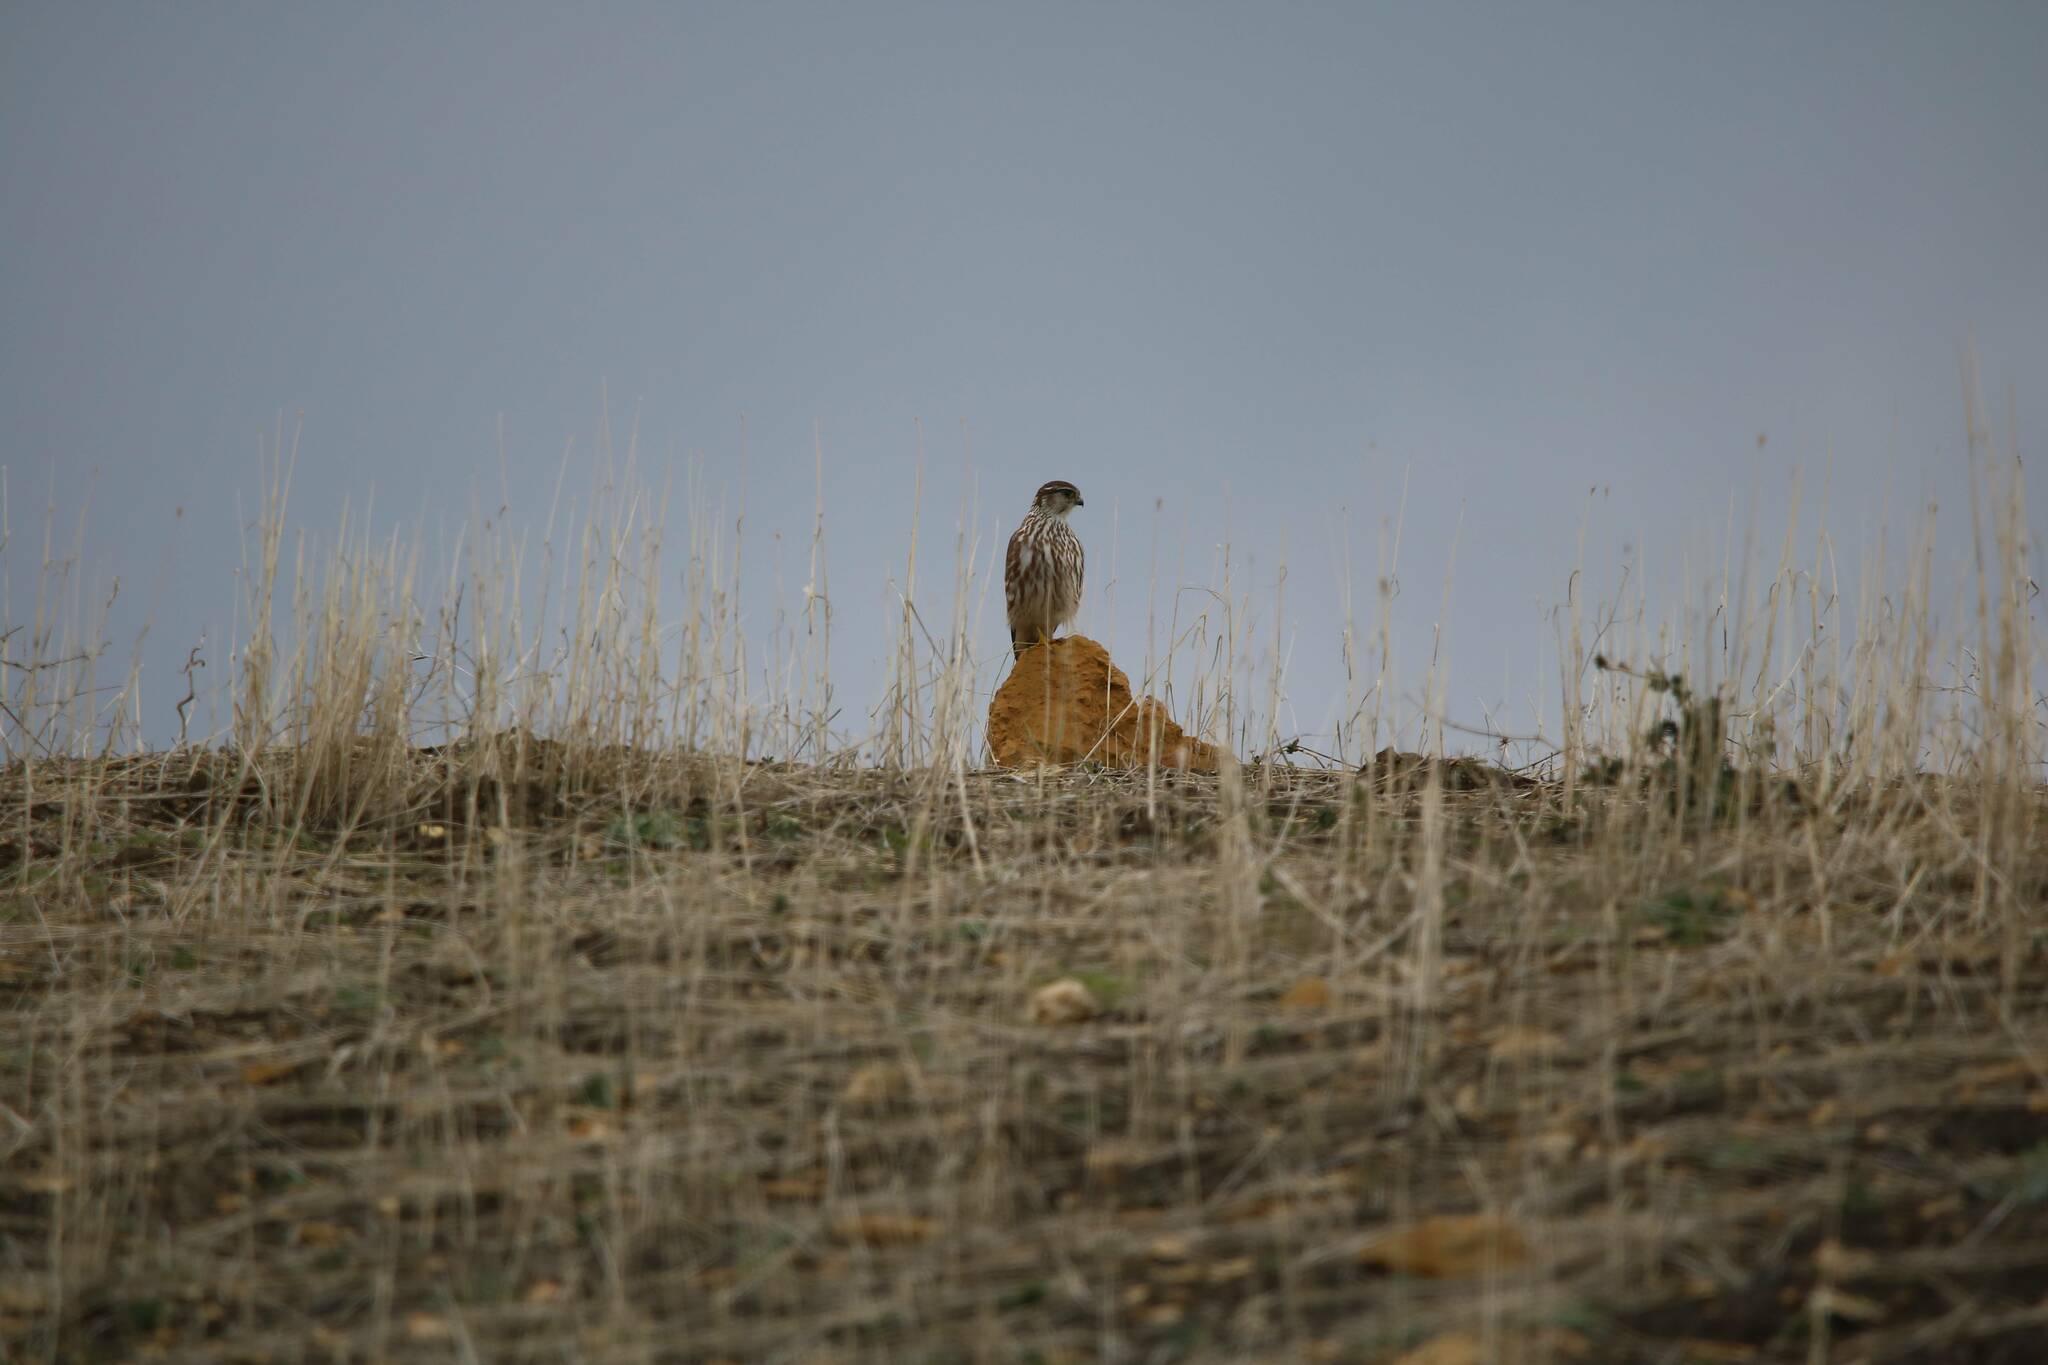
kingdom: Animalia
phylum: Chordata
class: Aves
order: Falconiformes
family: Falconidae
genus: Falco
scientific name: Falco columbarius
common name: Merlin
